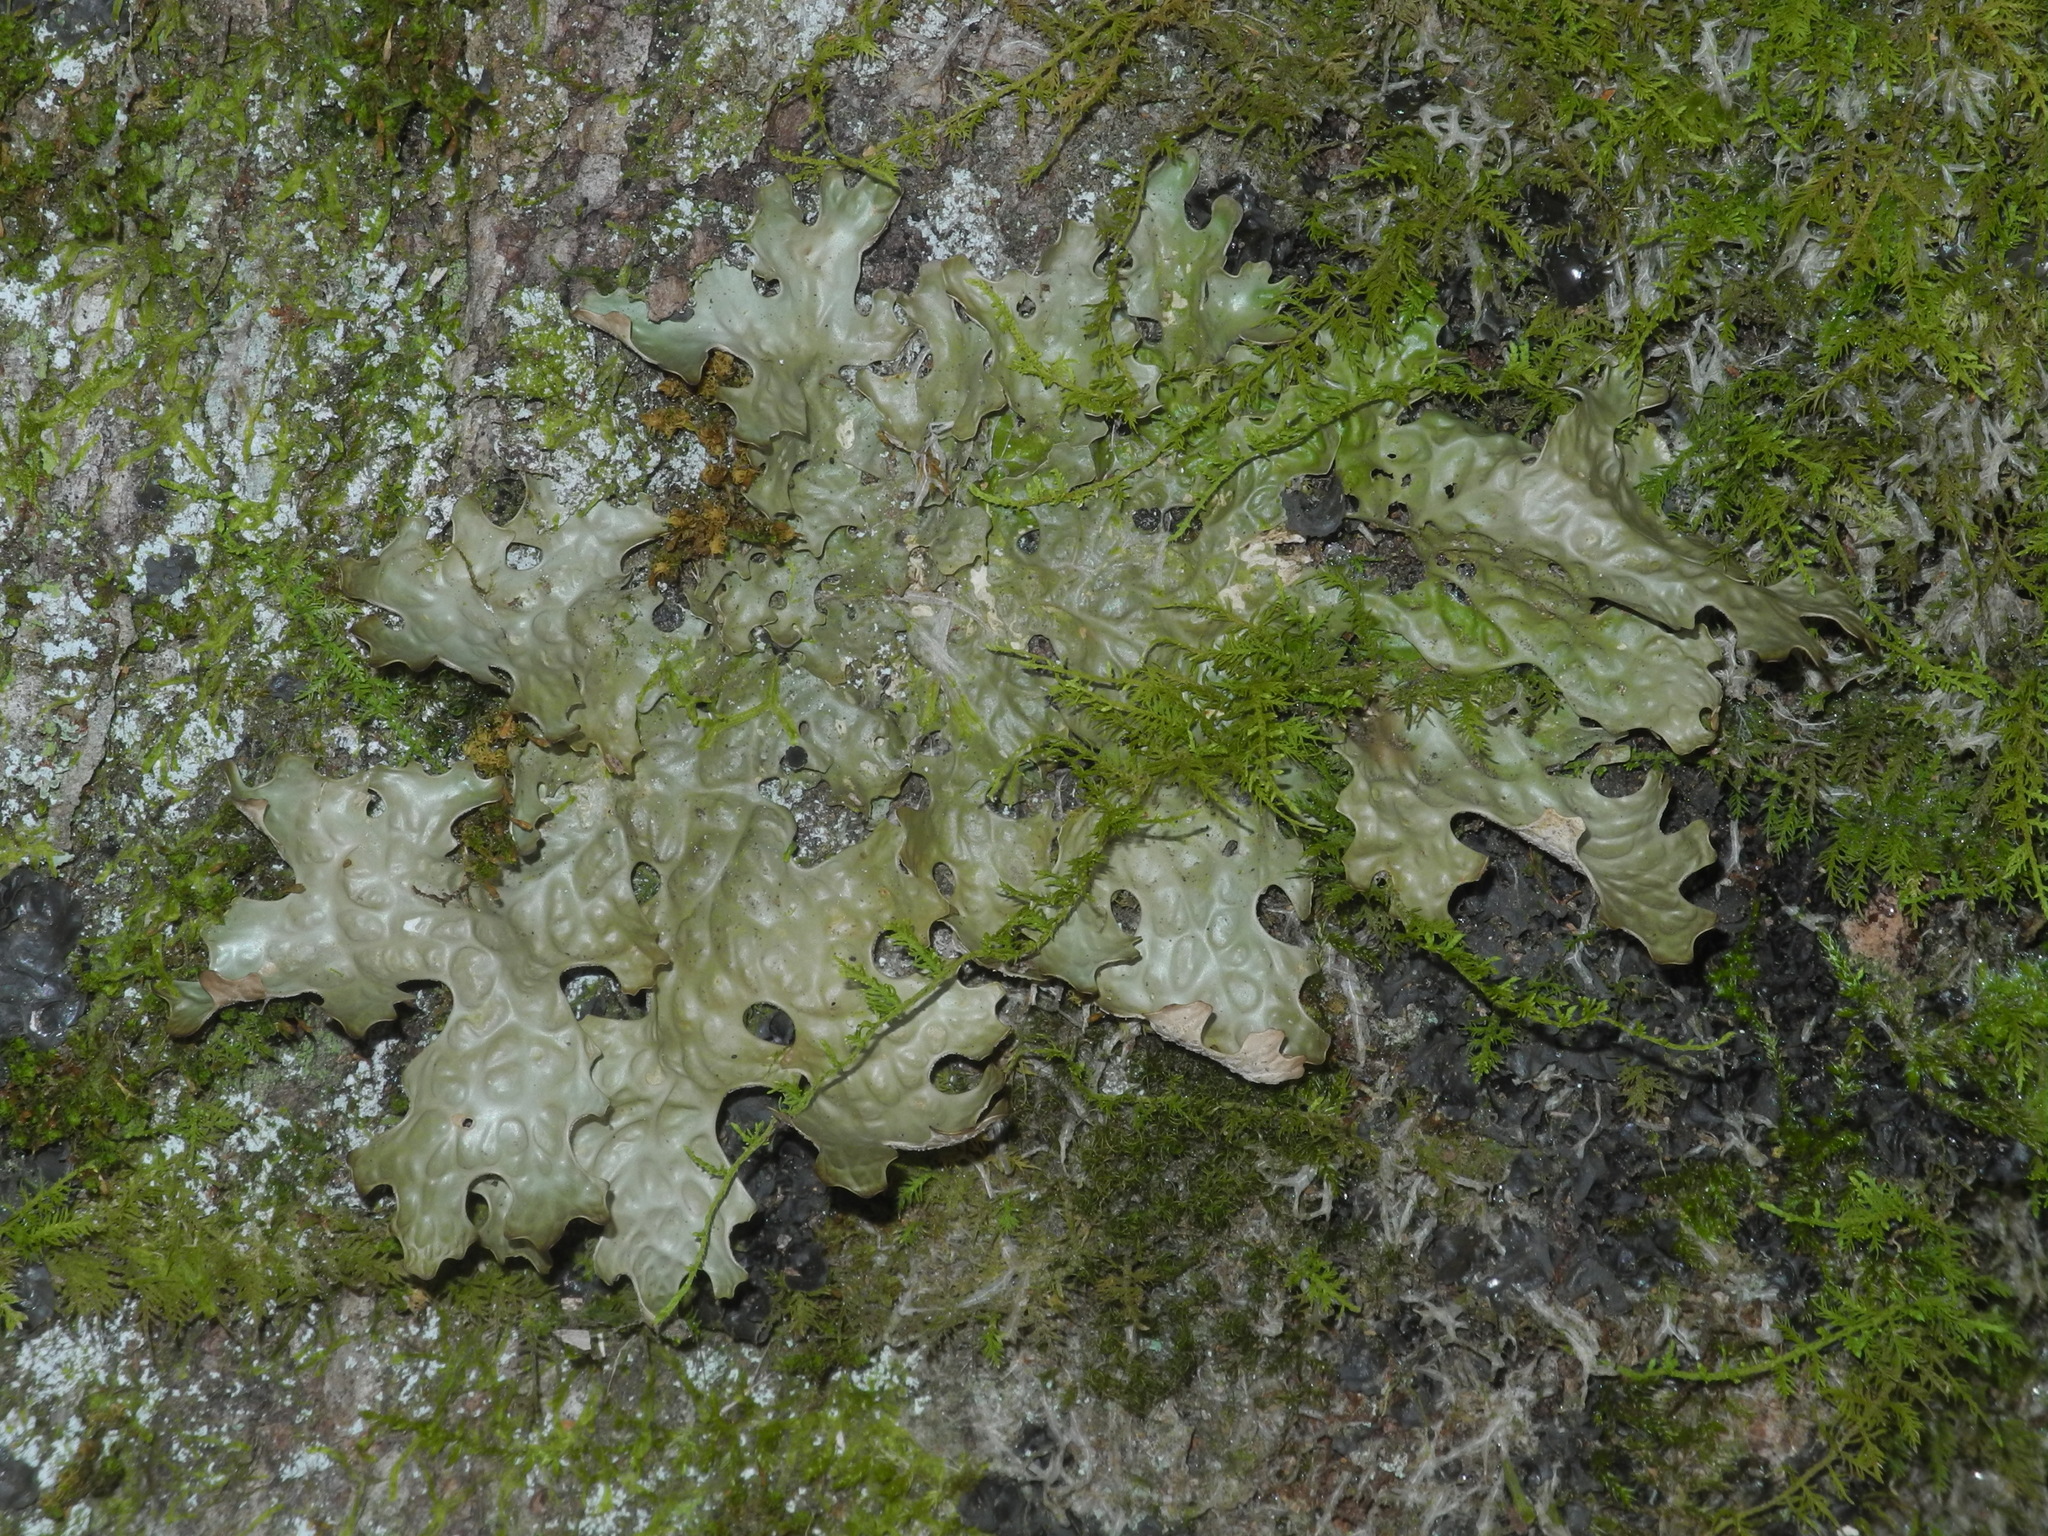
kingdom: Fungi
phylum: Ascomycota
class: Lecanoromycetes
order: Peltigerales
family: Lobariaceae
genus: Lobaria
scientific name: Lobaria pulmonaria
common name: Lungwort
